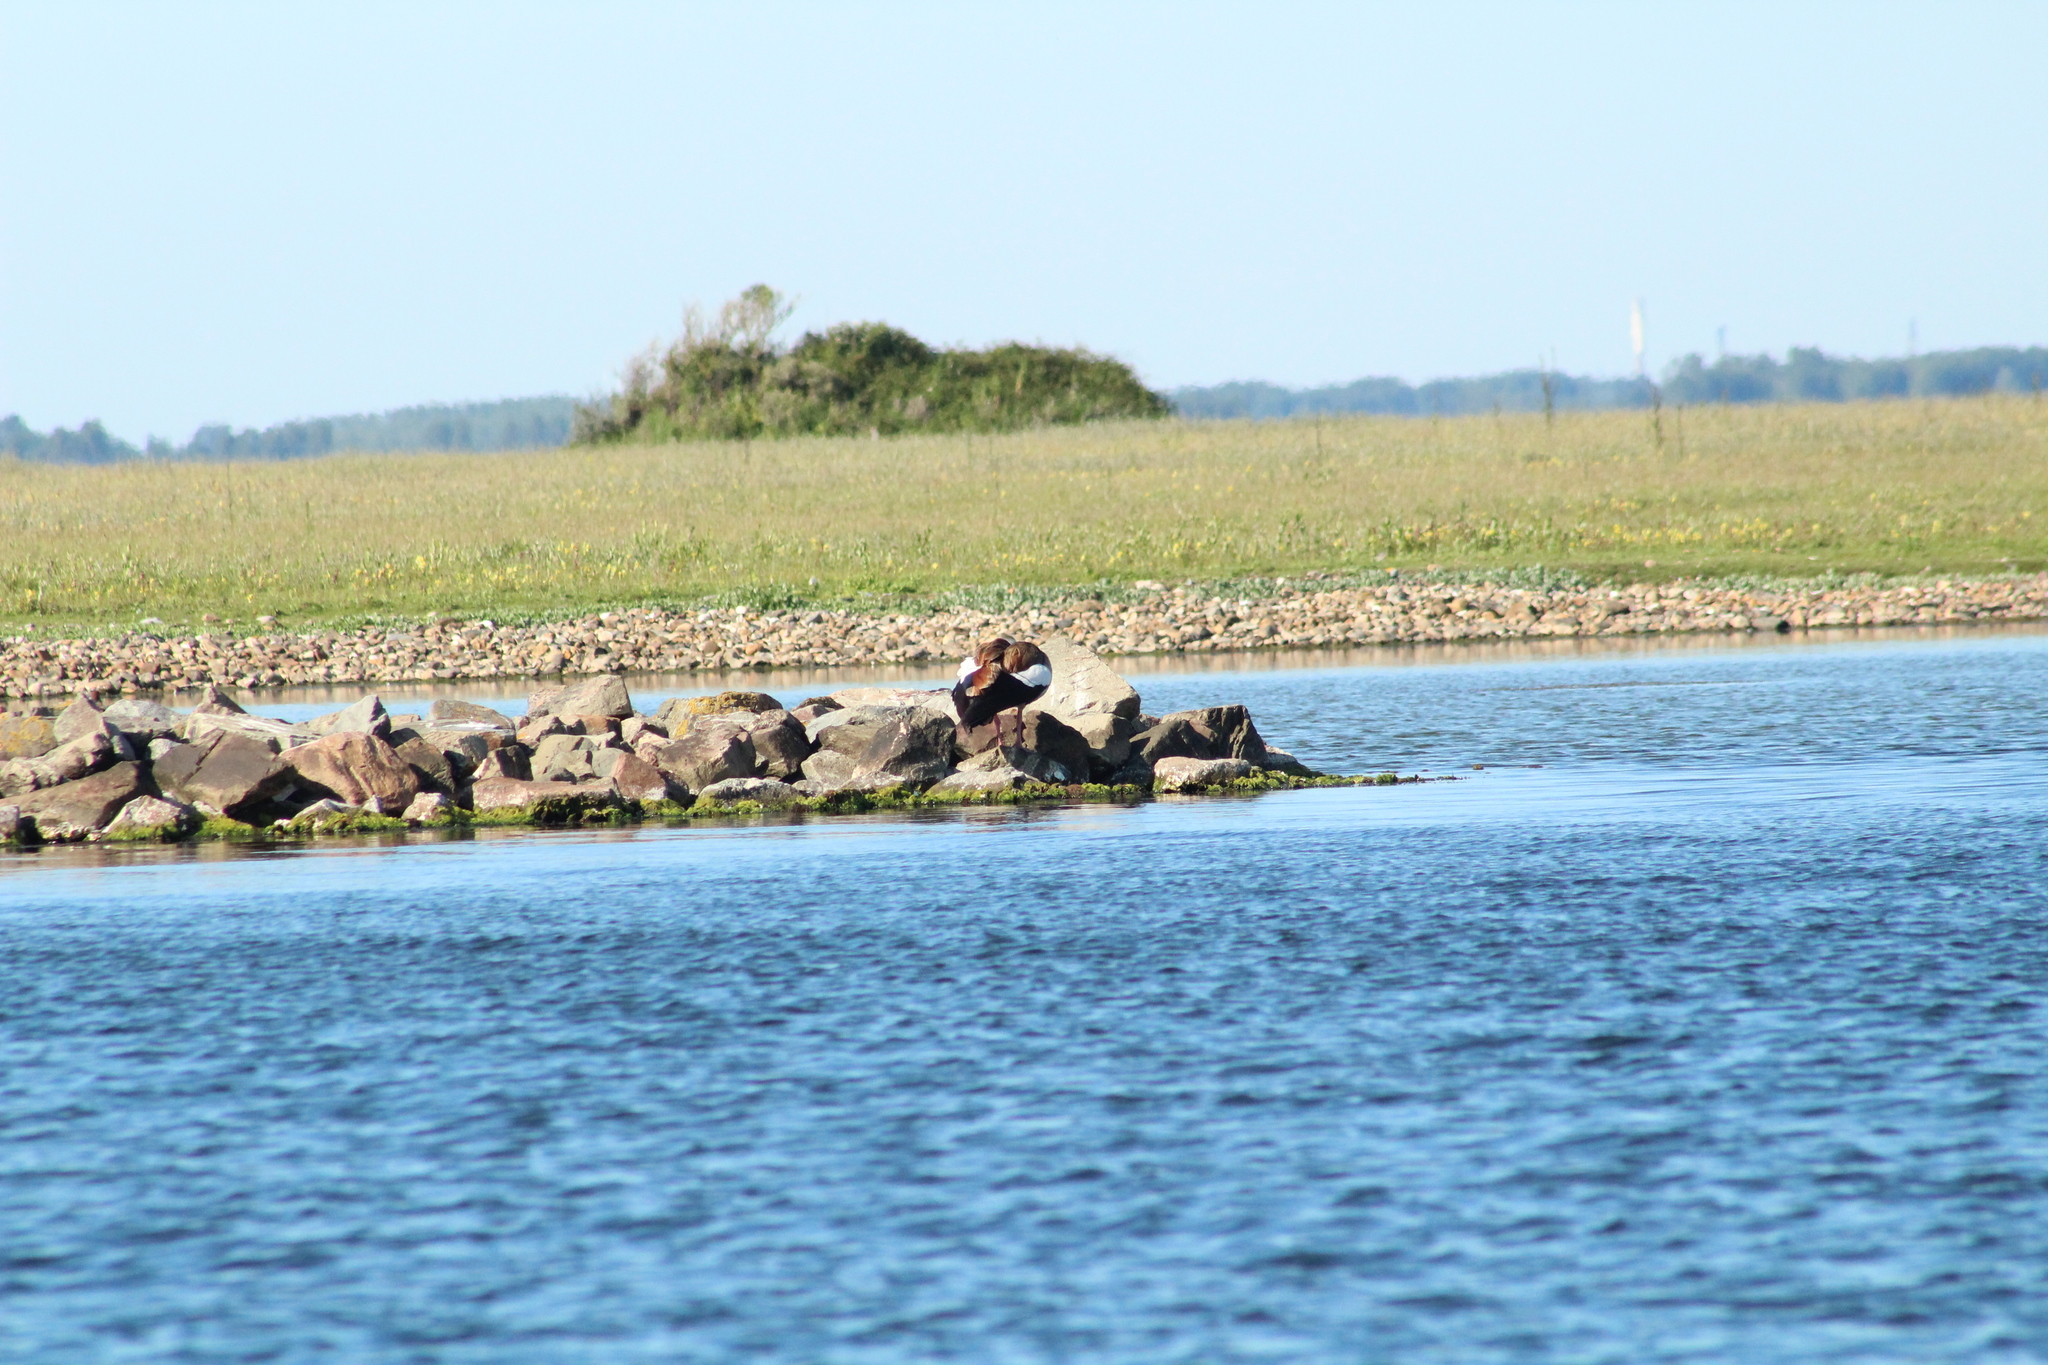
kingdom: Animalia
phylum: Chordata
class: Aves
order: Anseriformes
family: Anatidae
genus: Alopochen
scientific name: Alopochen aegyptiaca
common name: Egyptian goose
